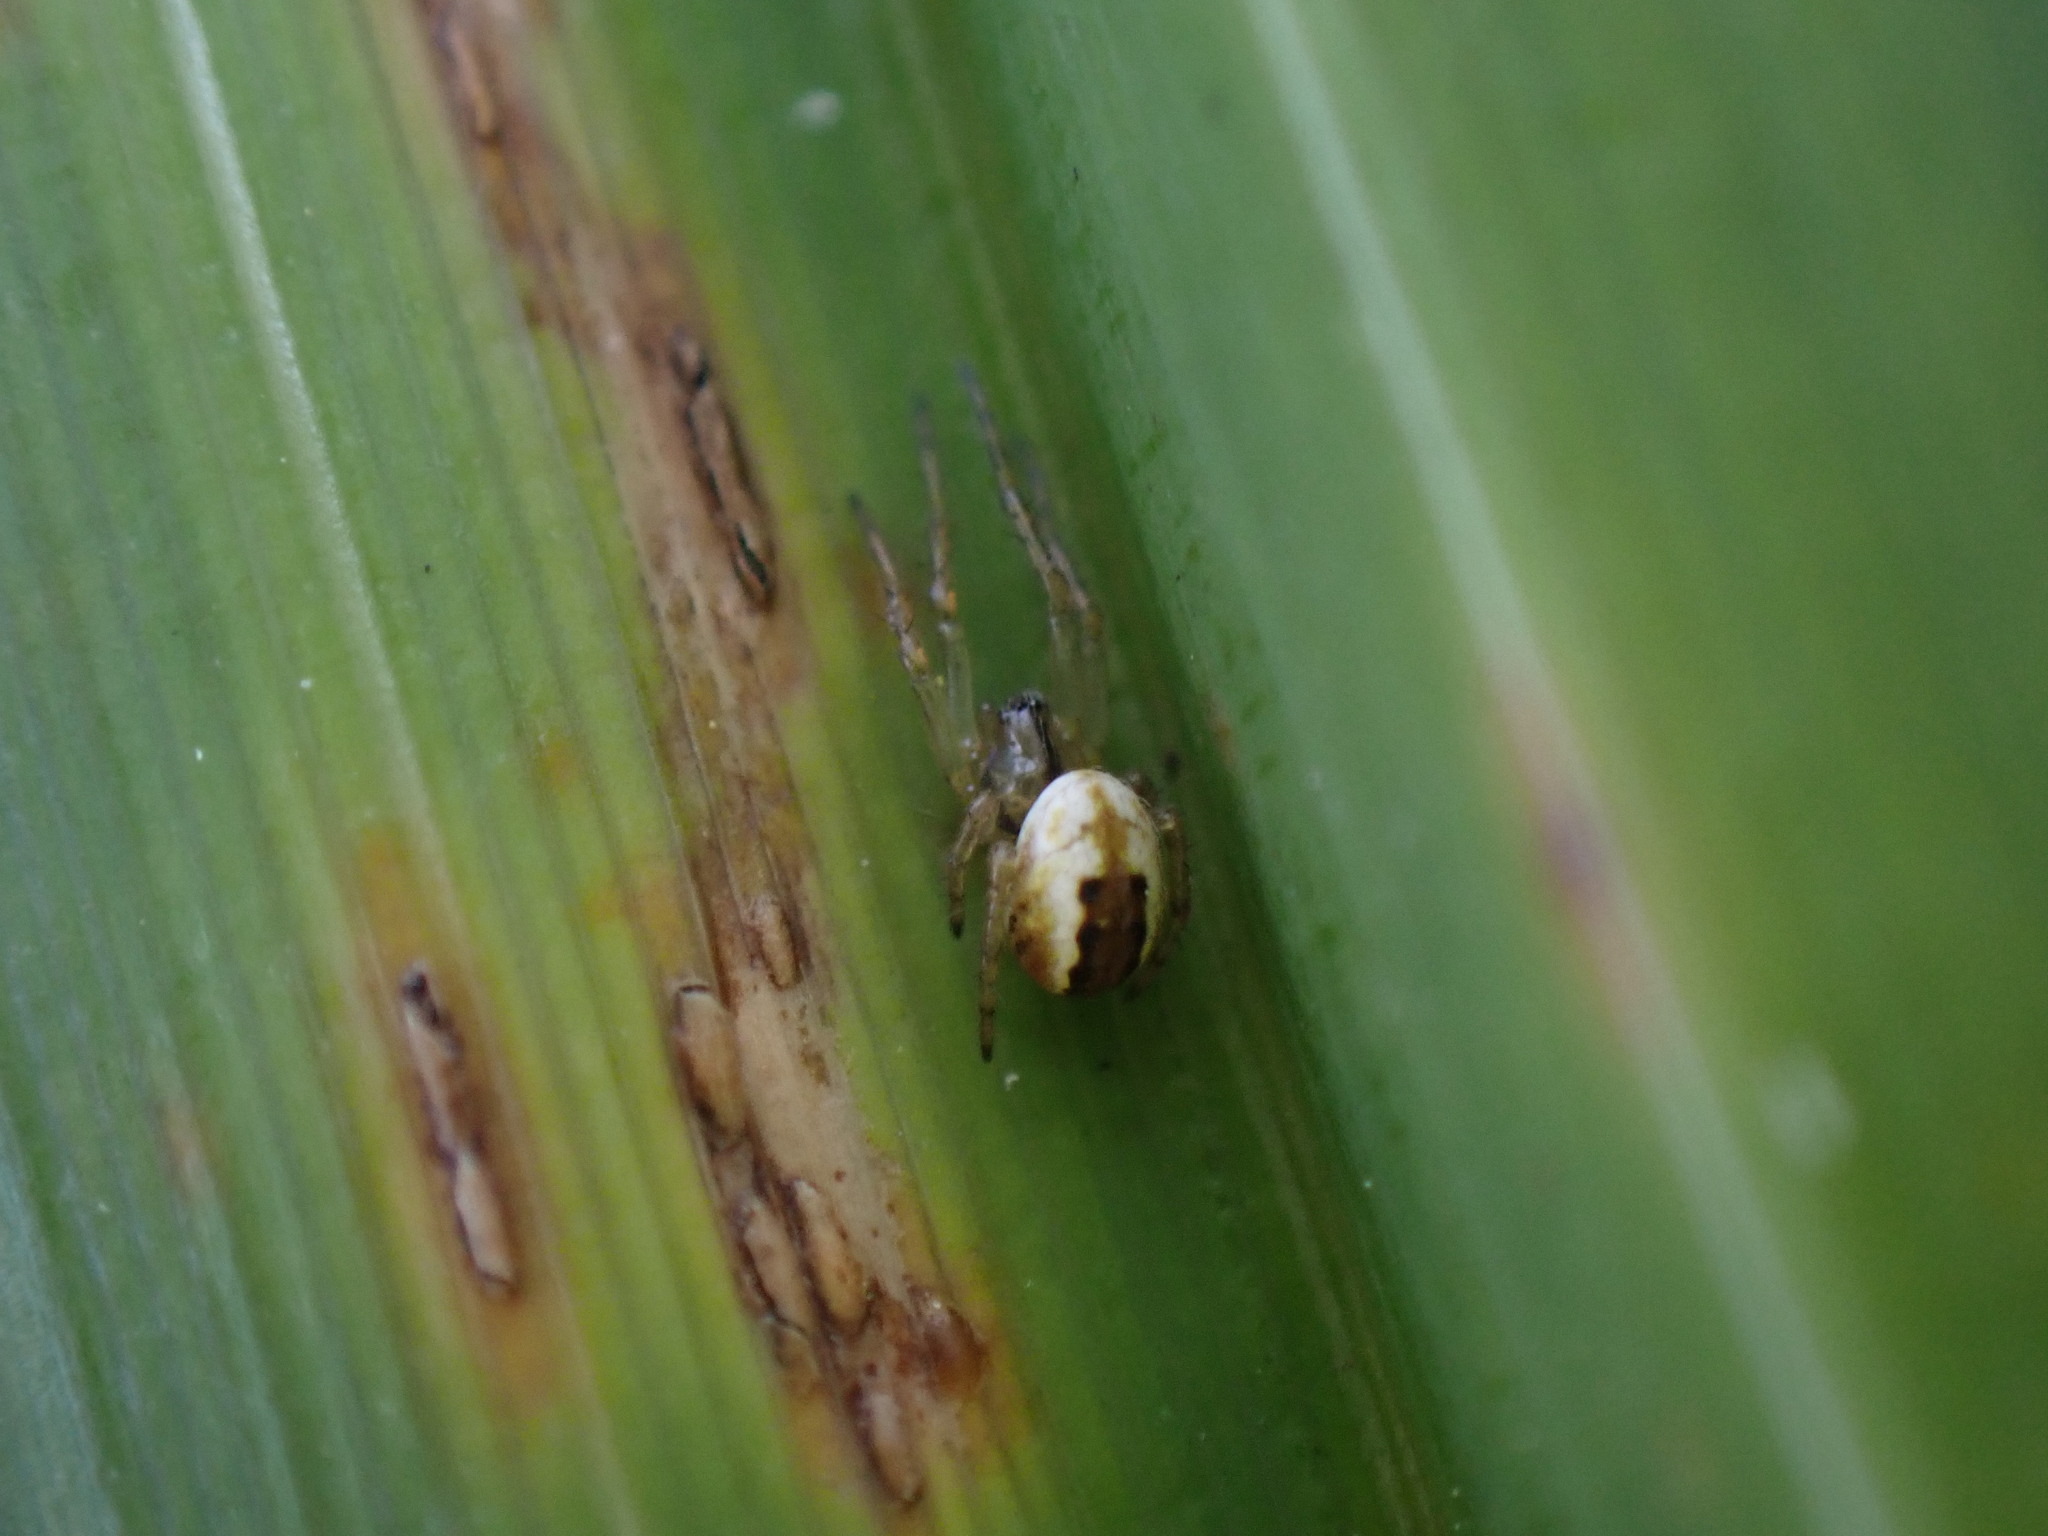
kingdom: Animalia
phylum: Arthropoda
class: Arachnida
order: Araneae
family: Araneidae
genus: Mangora
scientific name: Mangora acalypha
